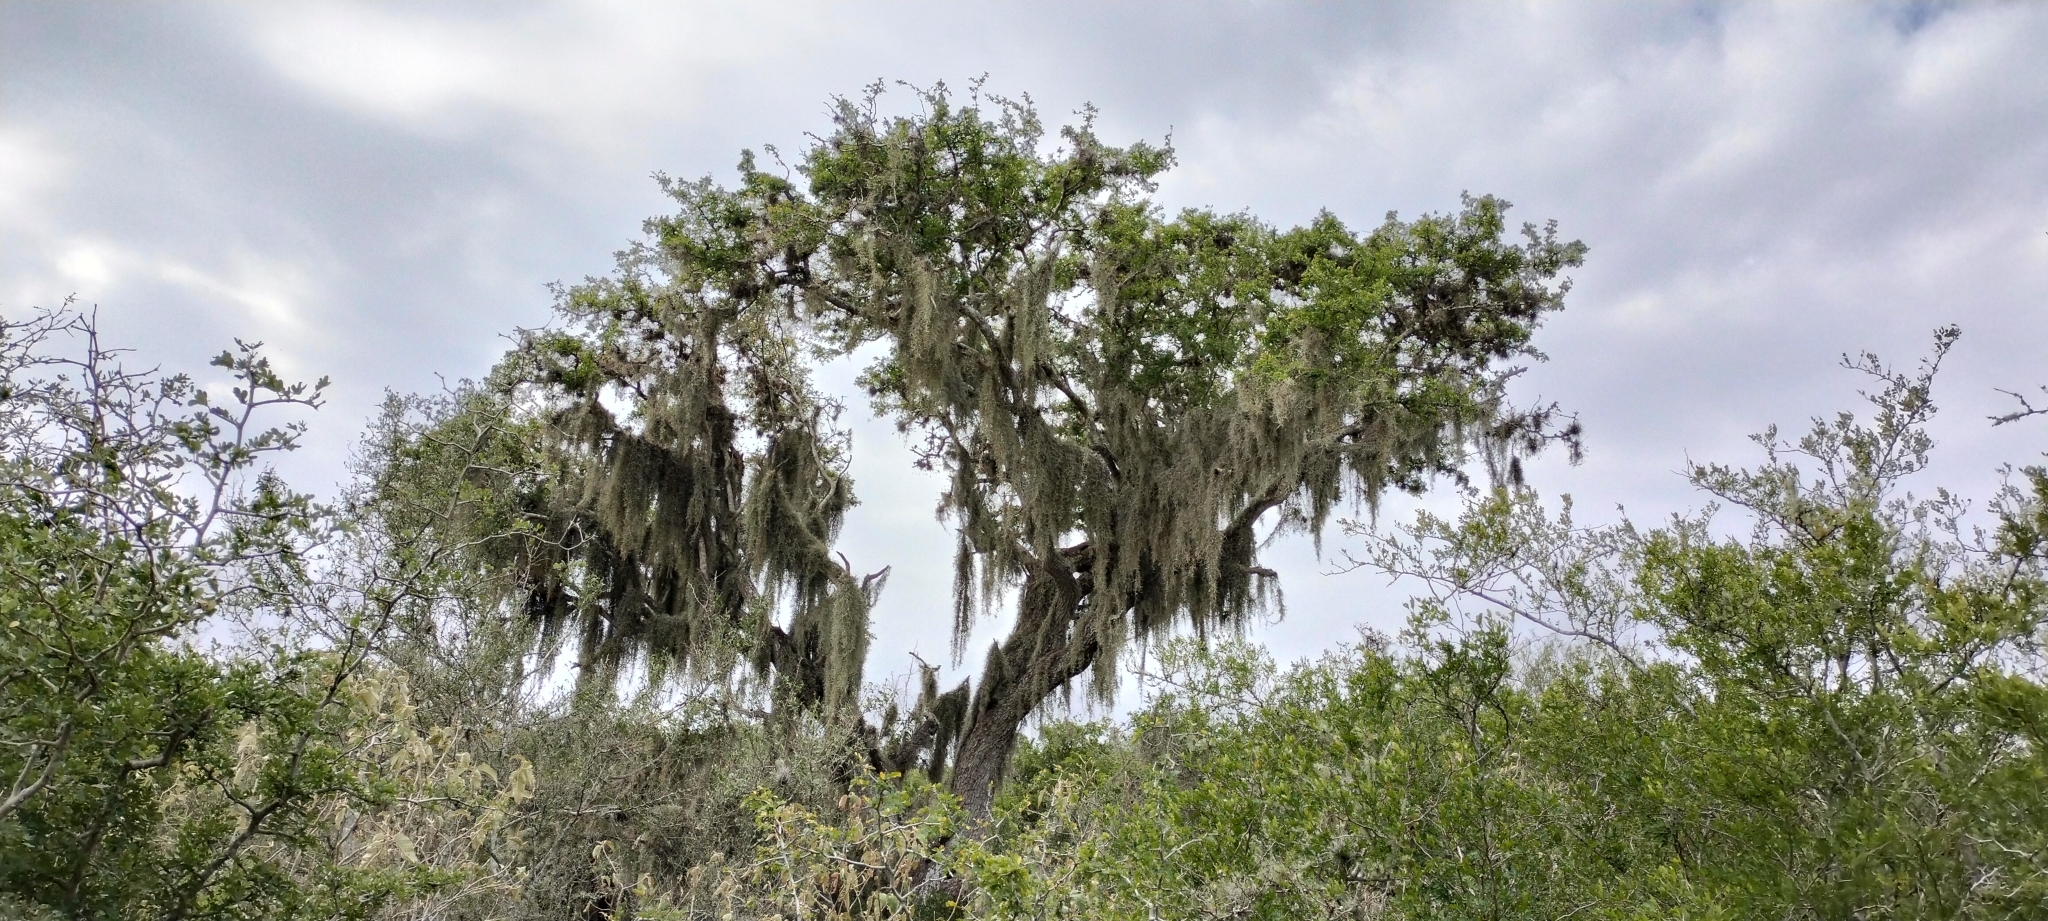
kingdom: Plantae
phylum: Tracheophyta
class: Liliopsida
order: Poales
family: Bromeliaceae
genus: Tillandsia
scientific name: Tillandsia usneoides
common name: Spanish moss
